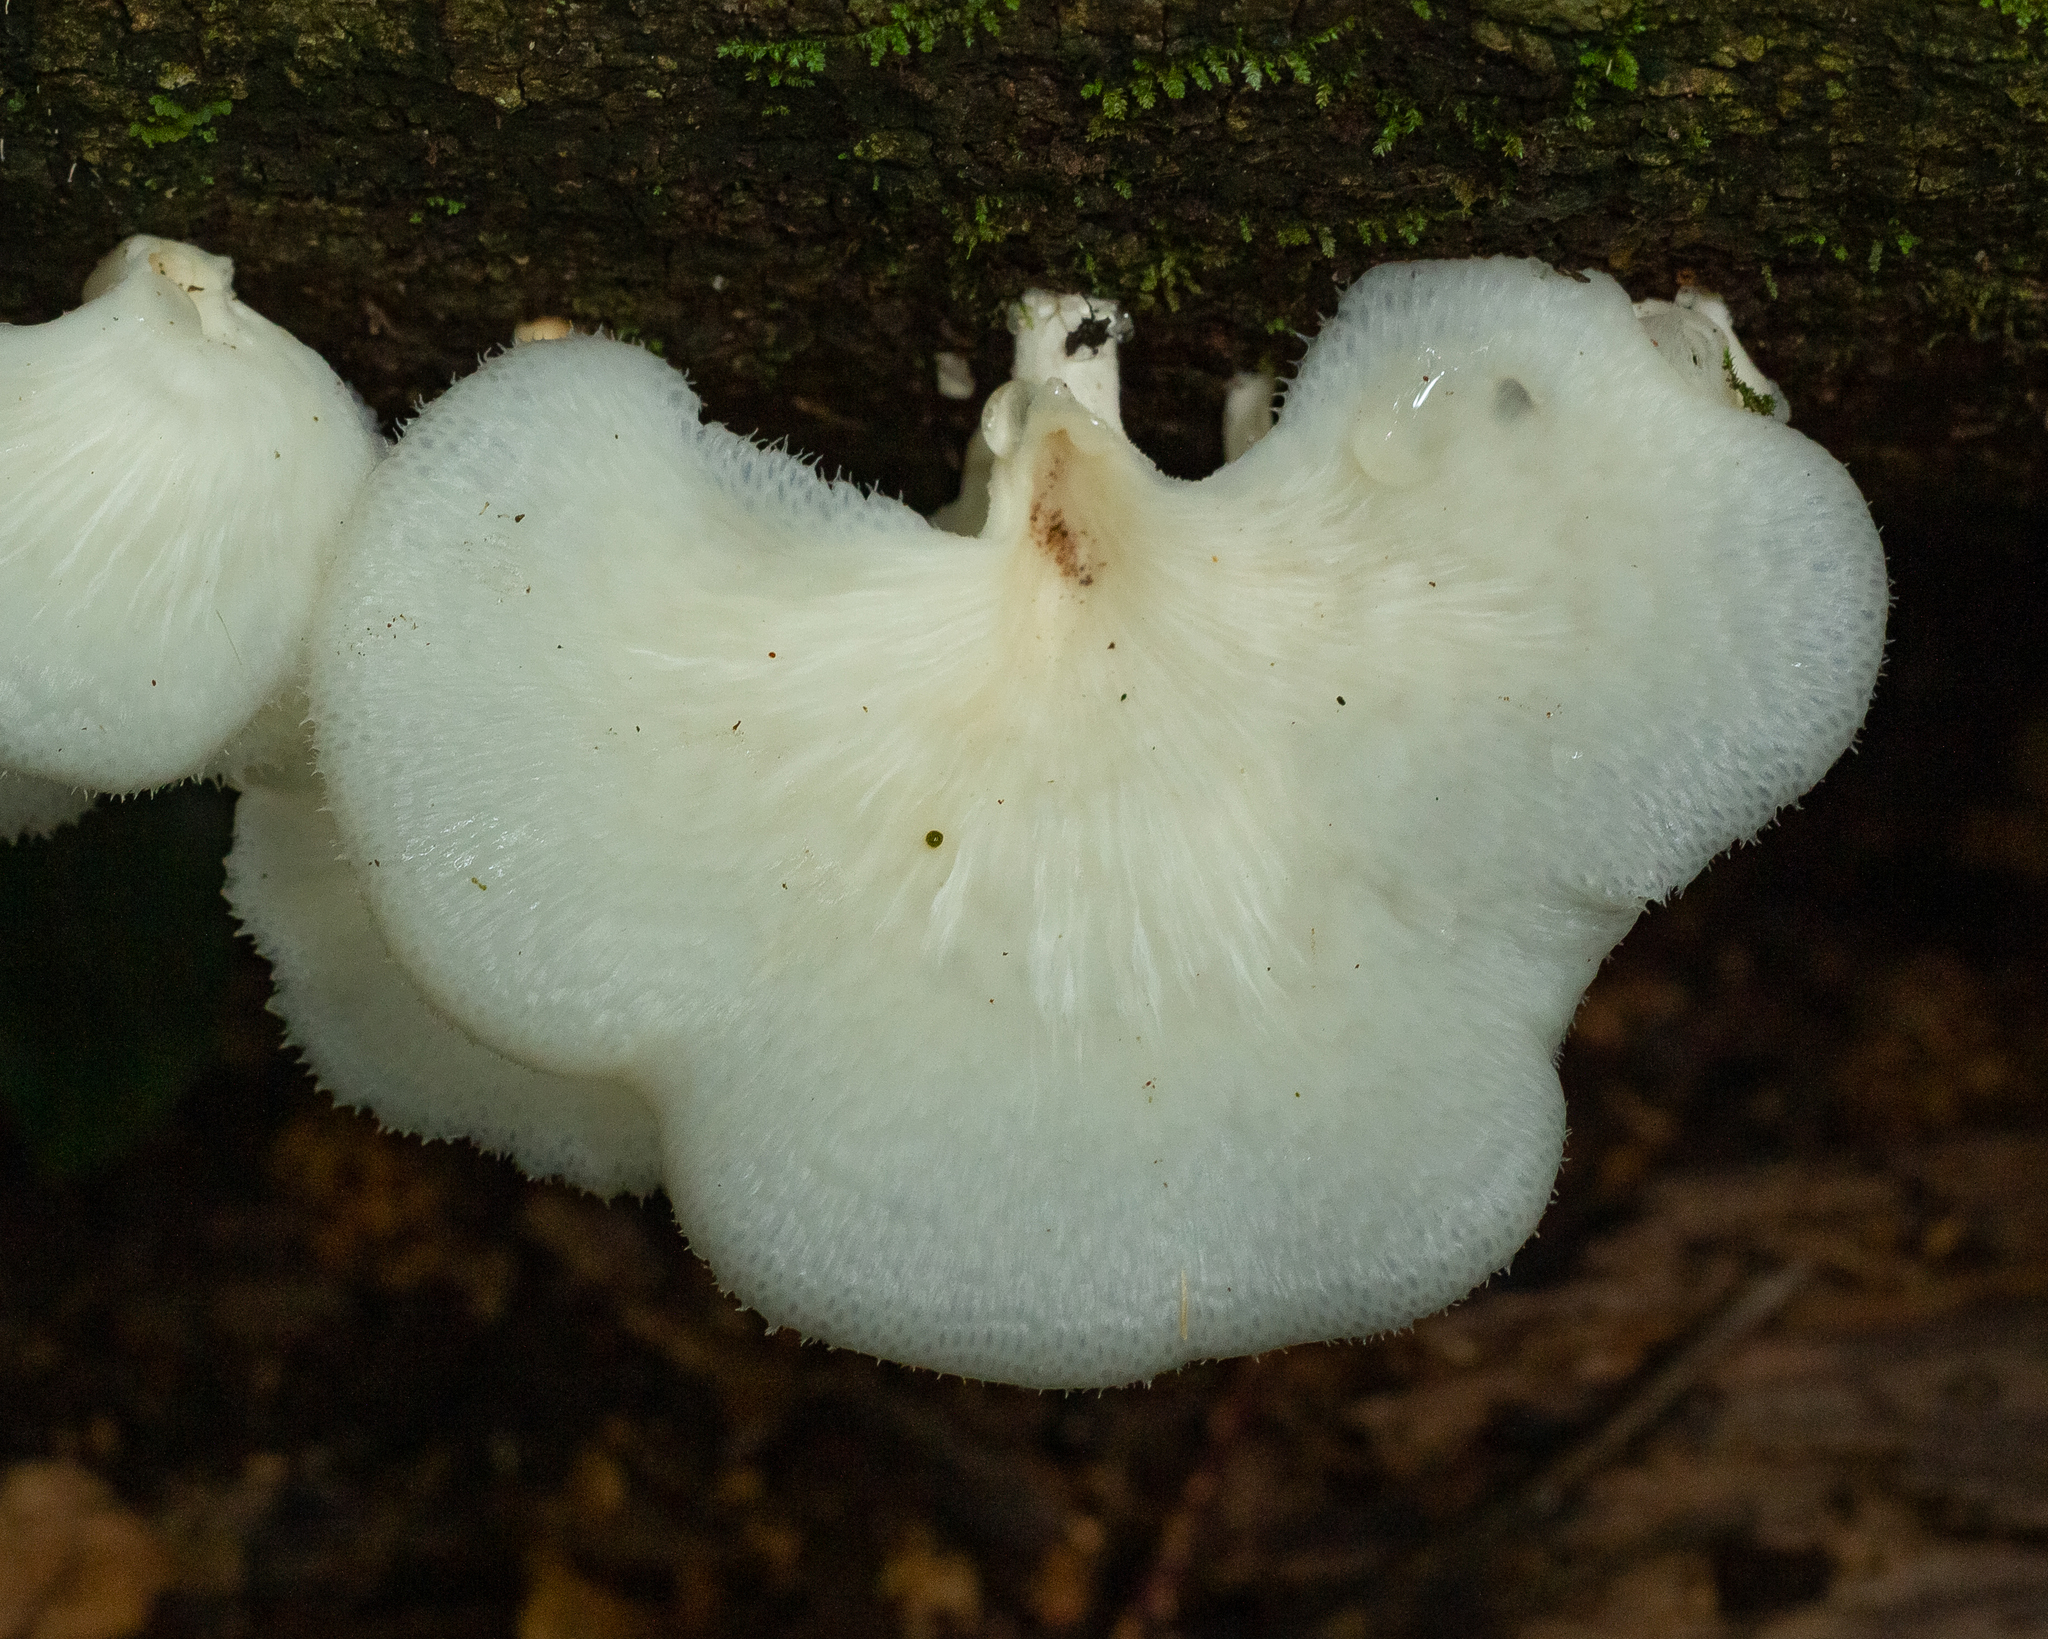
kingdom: Fungi
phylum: Basidiomycota
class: Agaricomycetes
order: Polyporales
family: Polyporaceae
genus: Favolus
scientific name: Favolus tenuiculus
